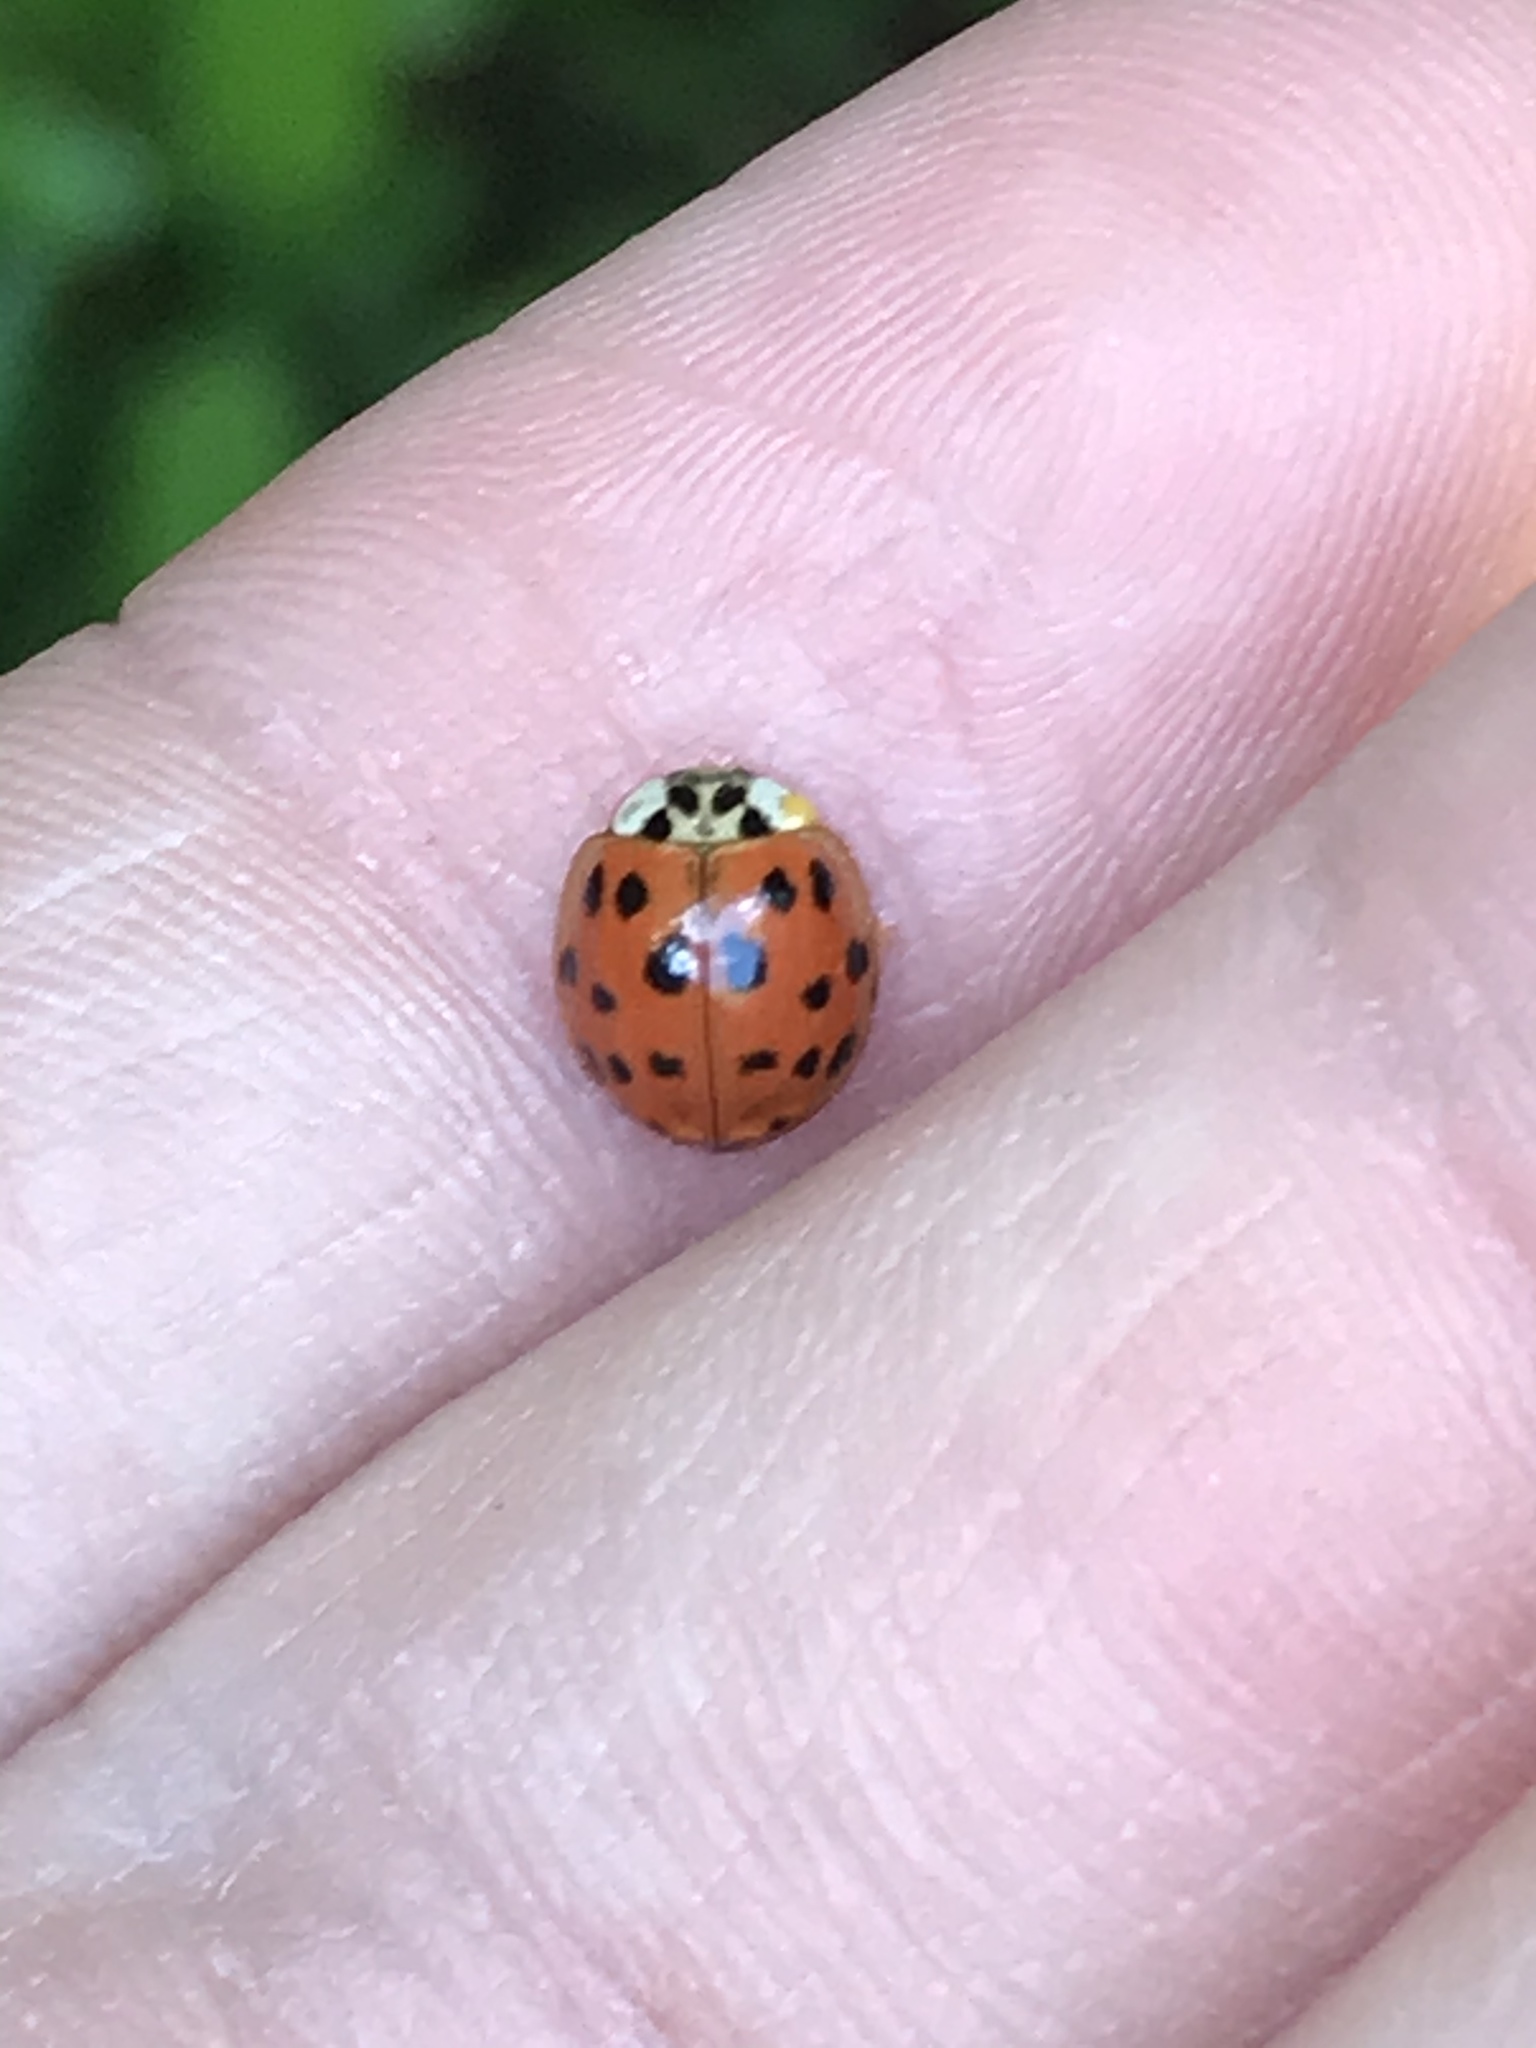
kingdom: Animalia
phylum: Arthropoda
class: Insecta
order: Coleoptera
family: Coccinellidae
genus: Harmonia
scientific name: Harmonia axyridis
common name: Harlequin ladybird
